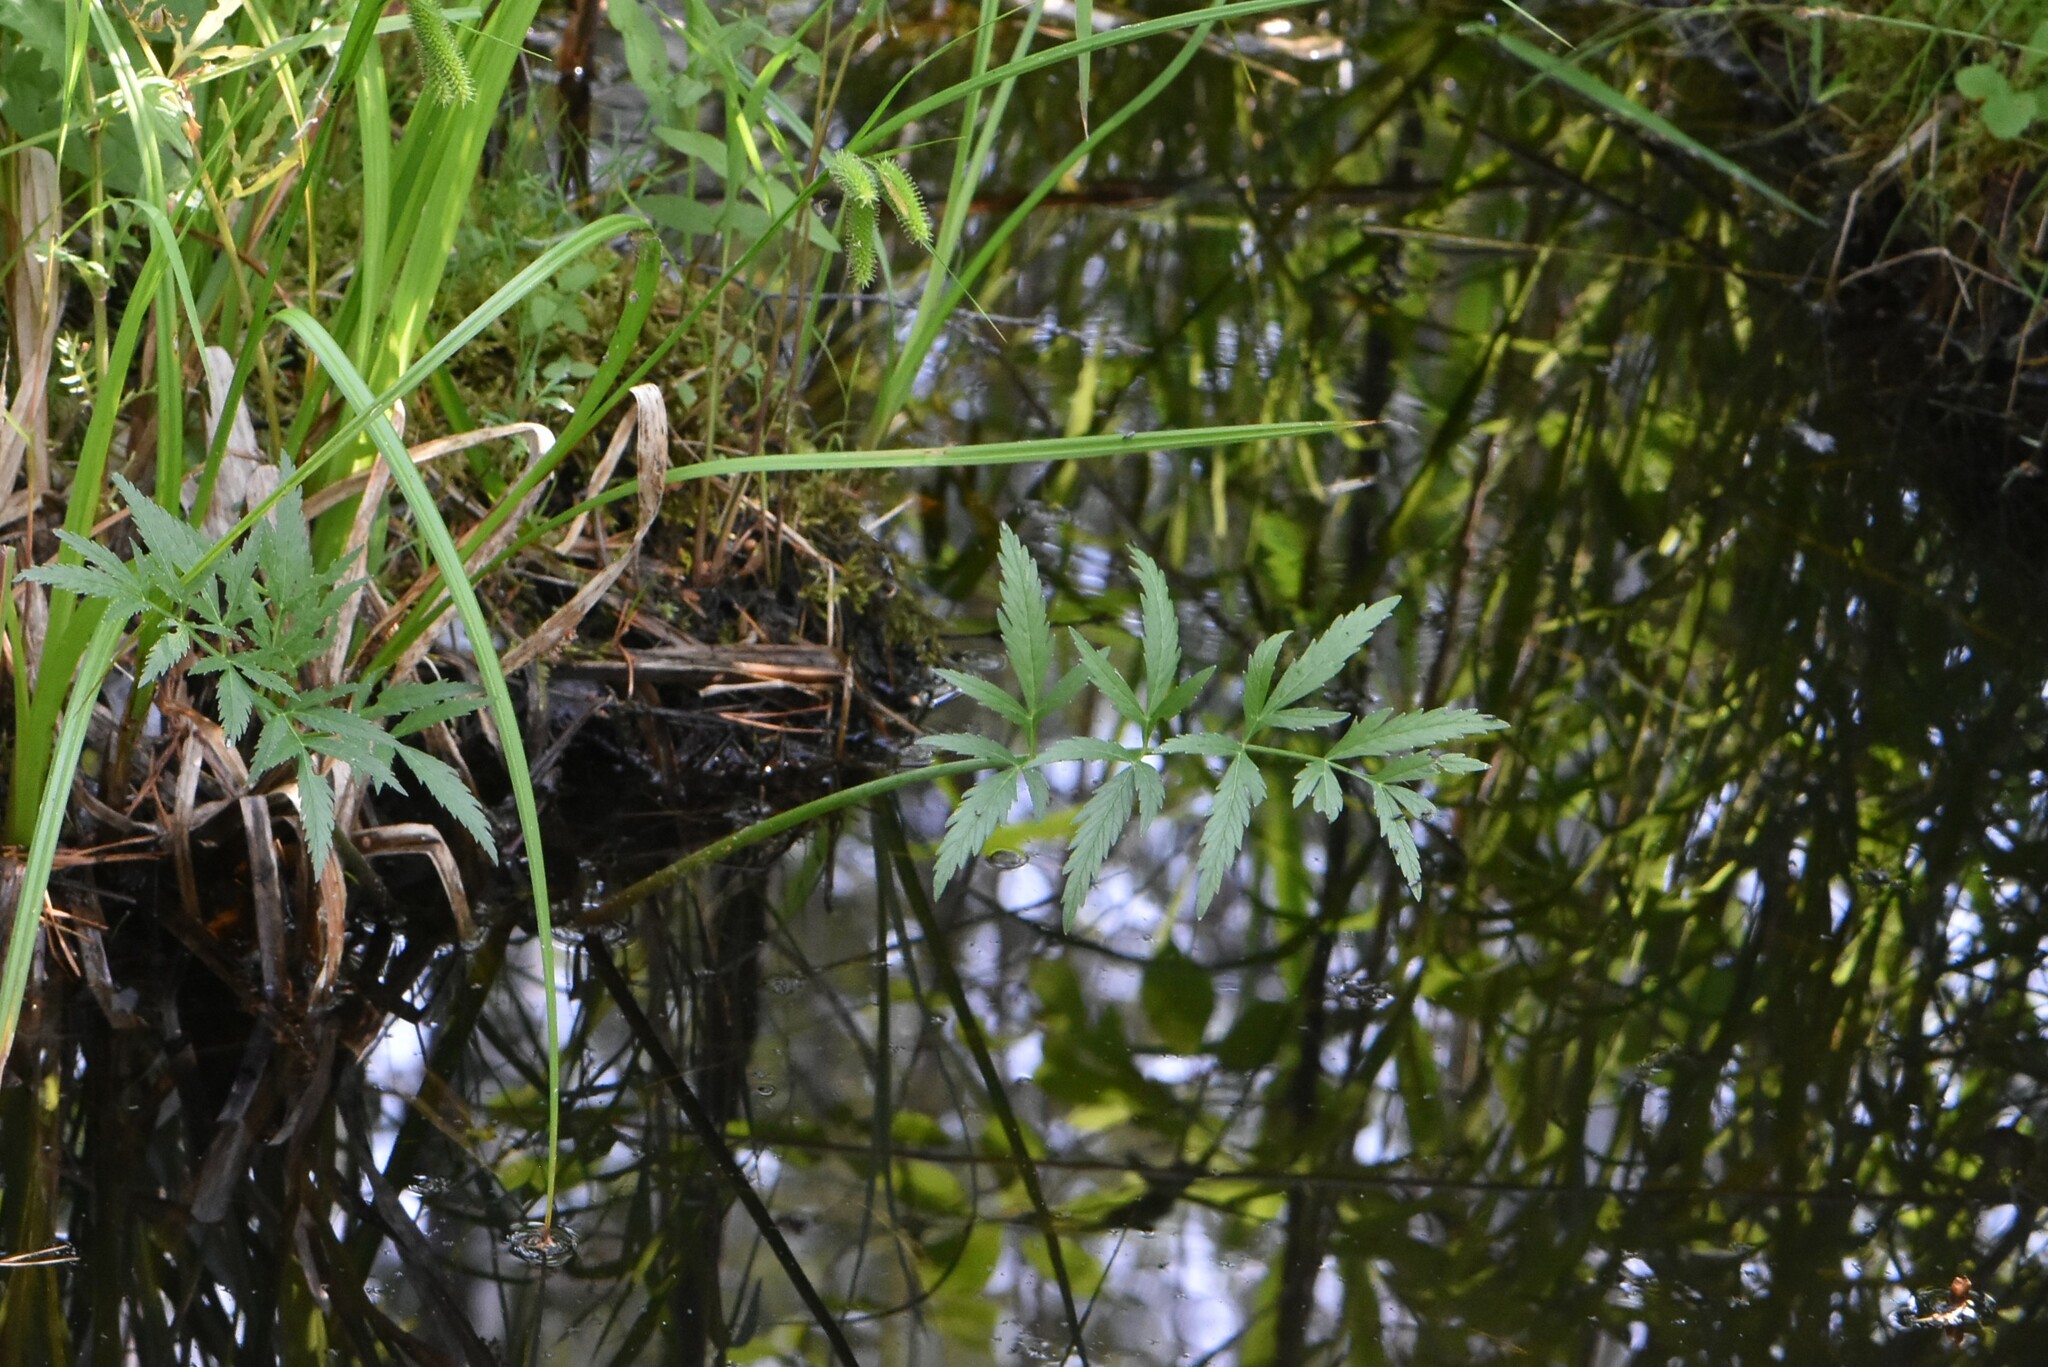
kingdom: Plantae
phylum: Tracheophyta
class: Magnoliopsida
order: Apiales
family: Apiaceae
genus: Cicuta
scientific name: Cicuta virosa
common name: Cowbane
